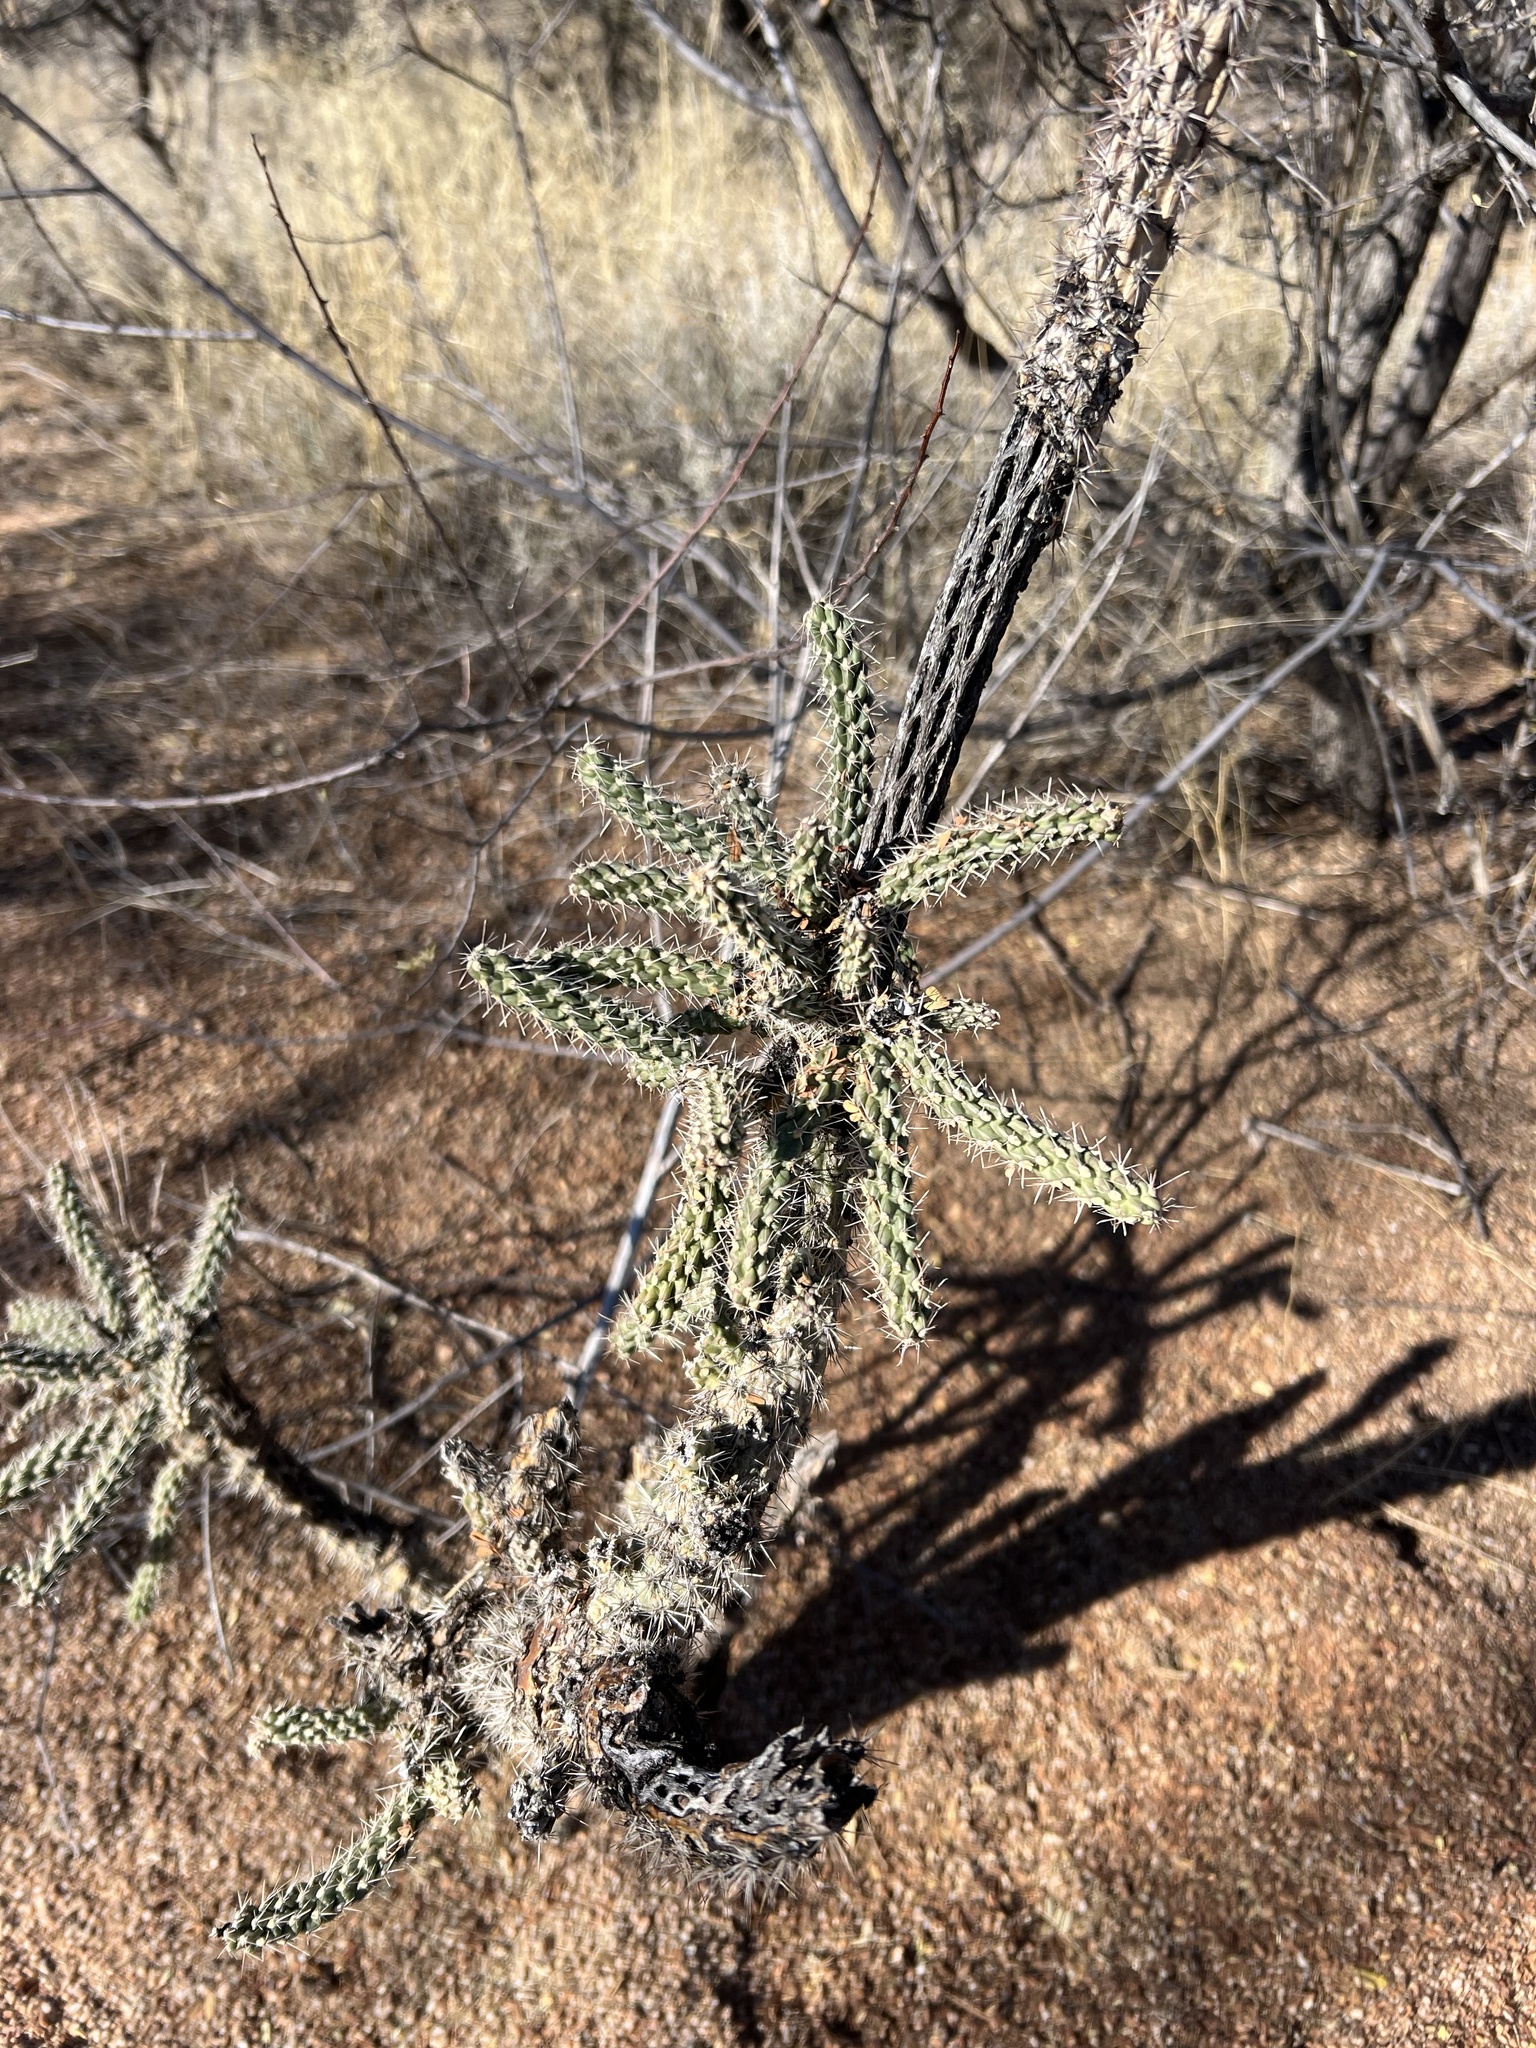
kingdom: Plantae
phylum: Tracheophyta
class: Magnoliopsida
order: Caryophyllales
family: Cactaceae
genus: Cylindropuntia
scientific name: Cylindropuntia imbricata
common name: Candelabrum cactus
